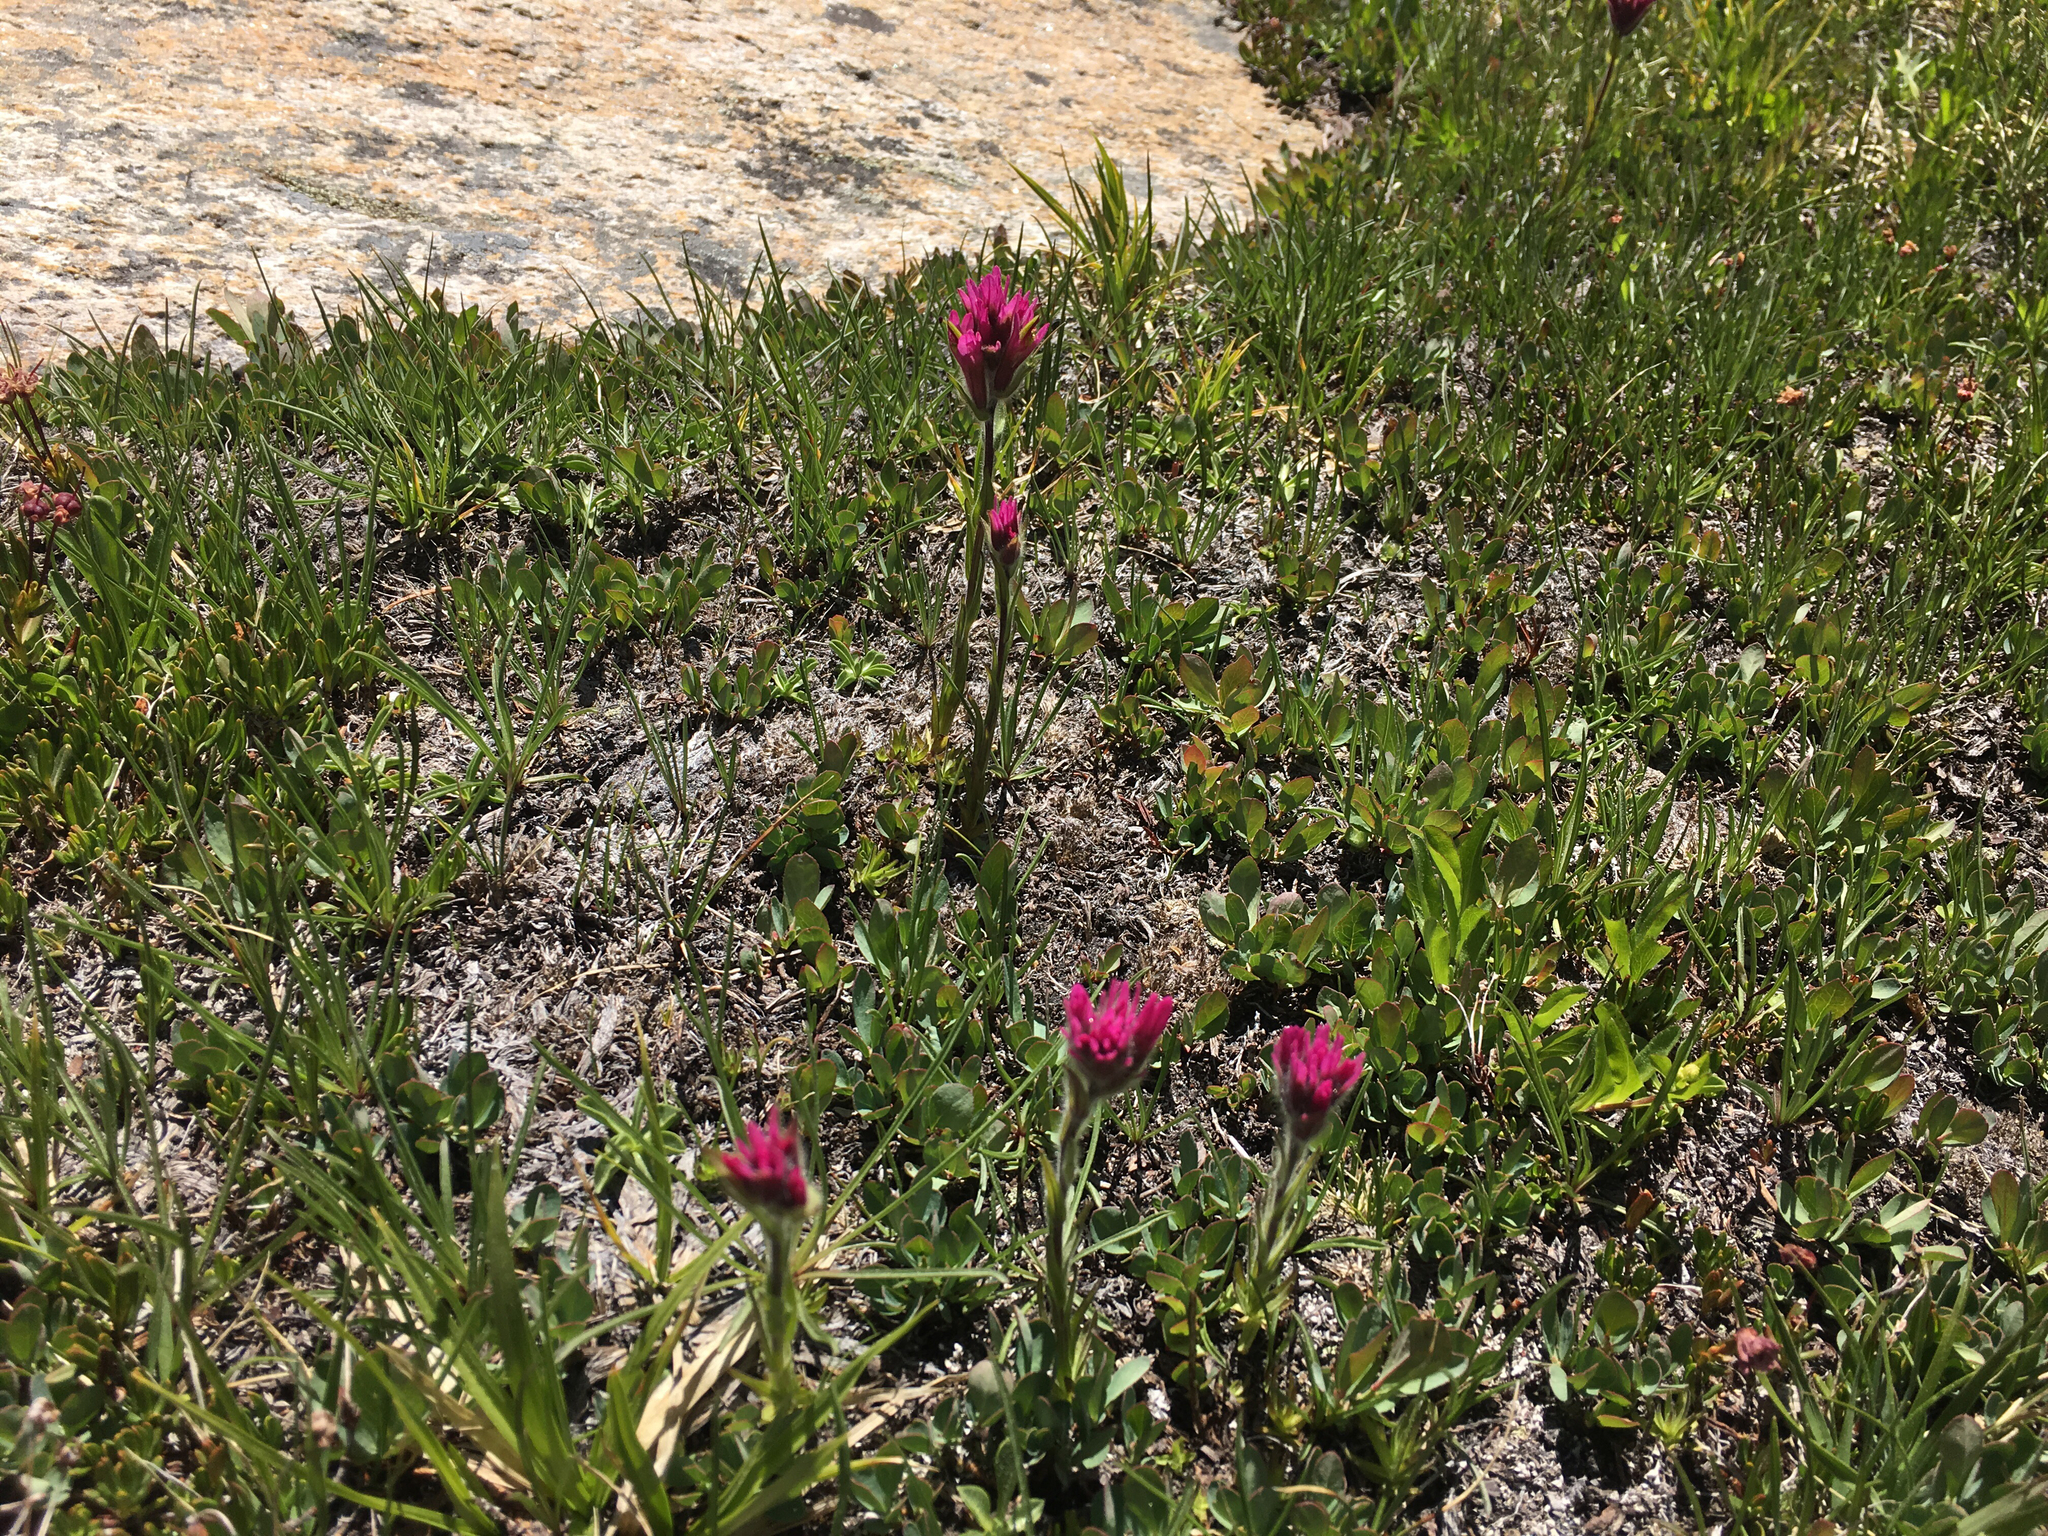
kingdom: Plantae
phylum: Tracheophyta
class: Magnoliopsida
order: Lamiales
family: Orobanchaceae
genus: Castilleja
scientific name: Castilleja lemmonii
